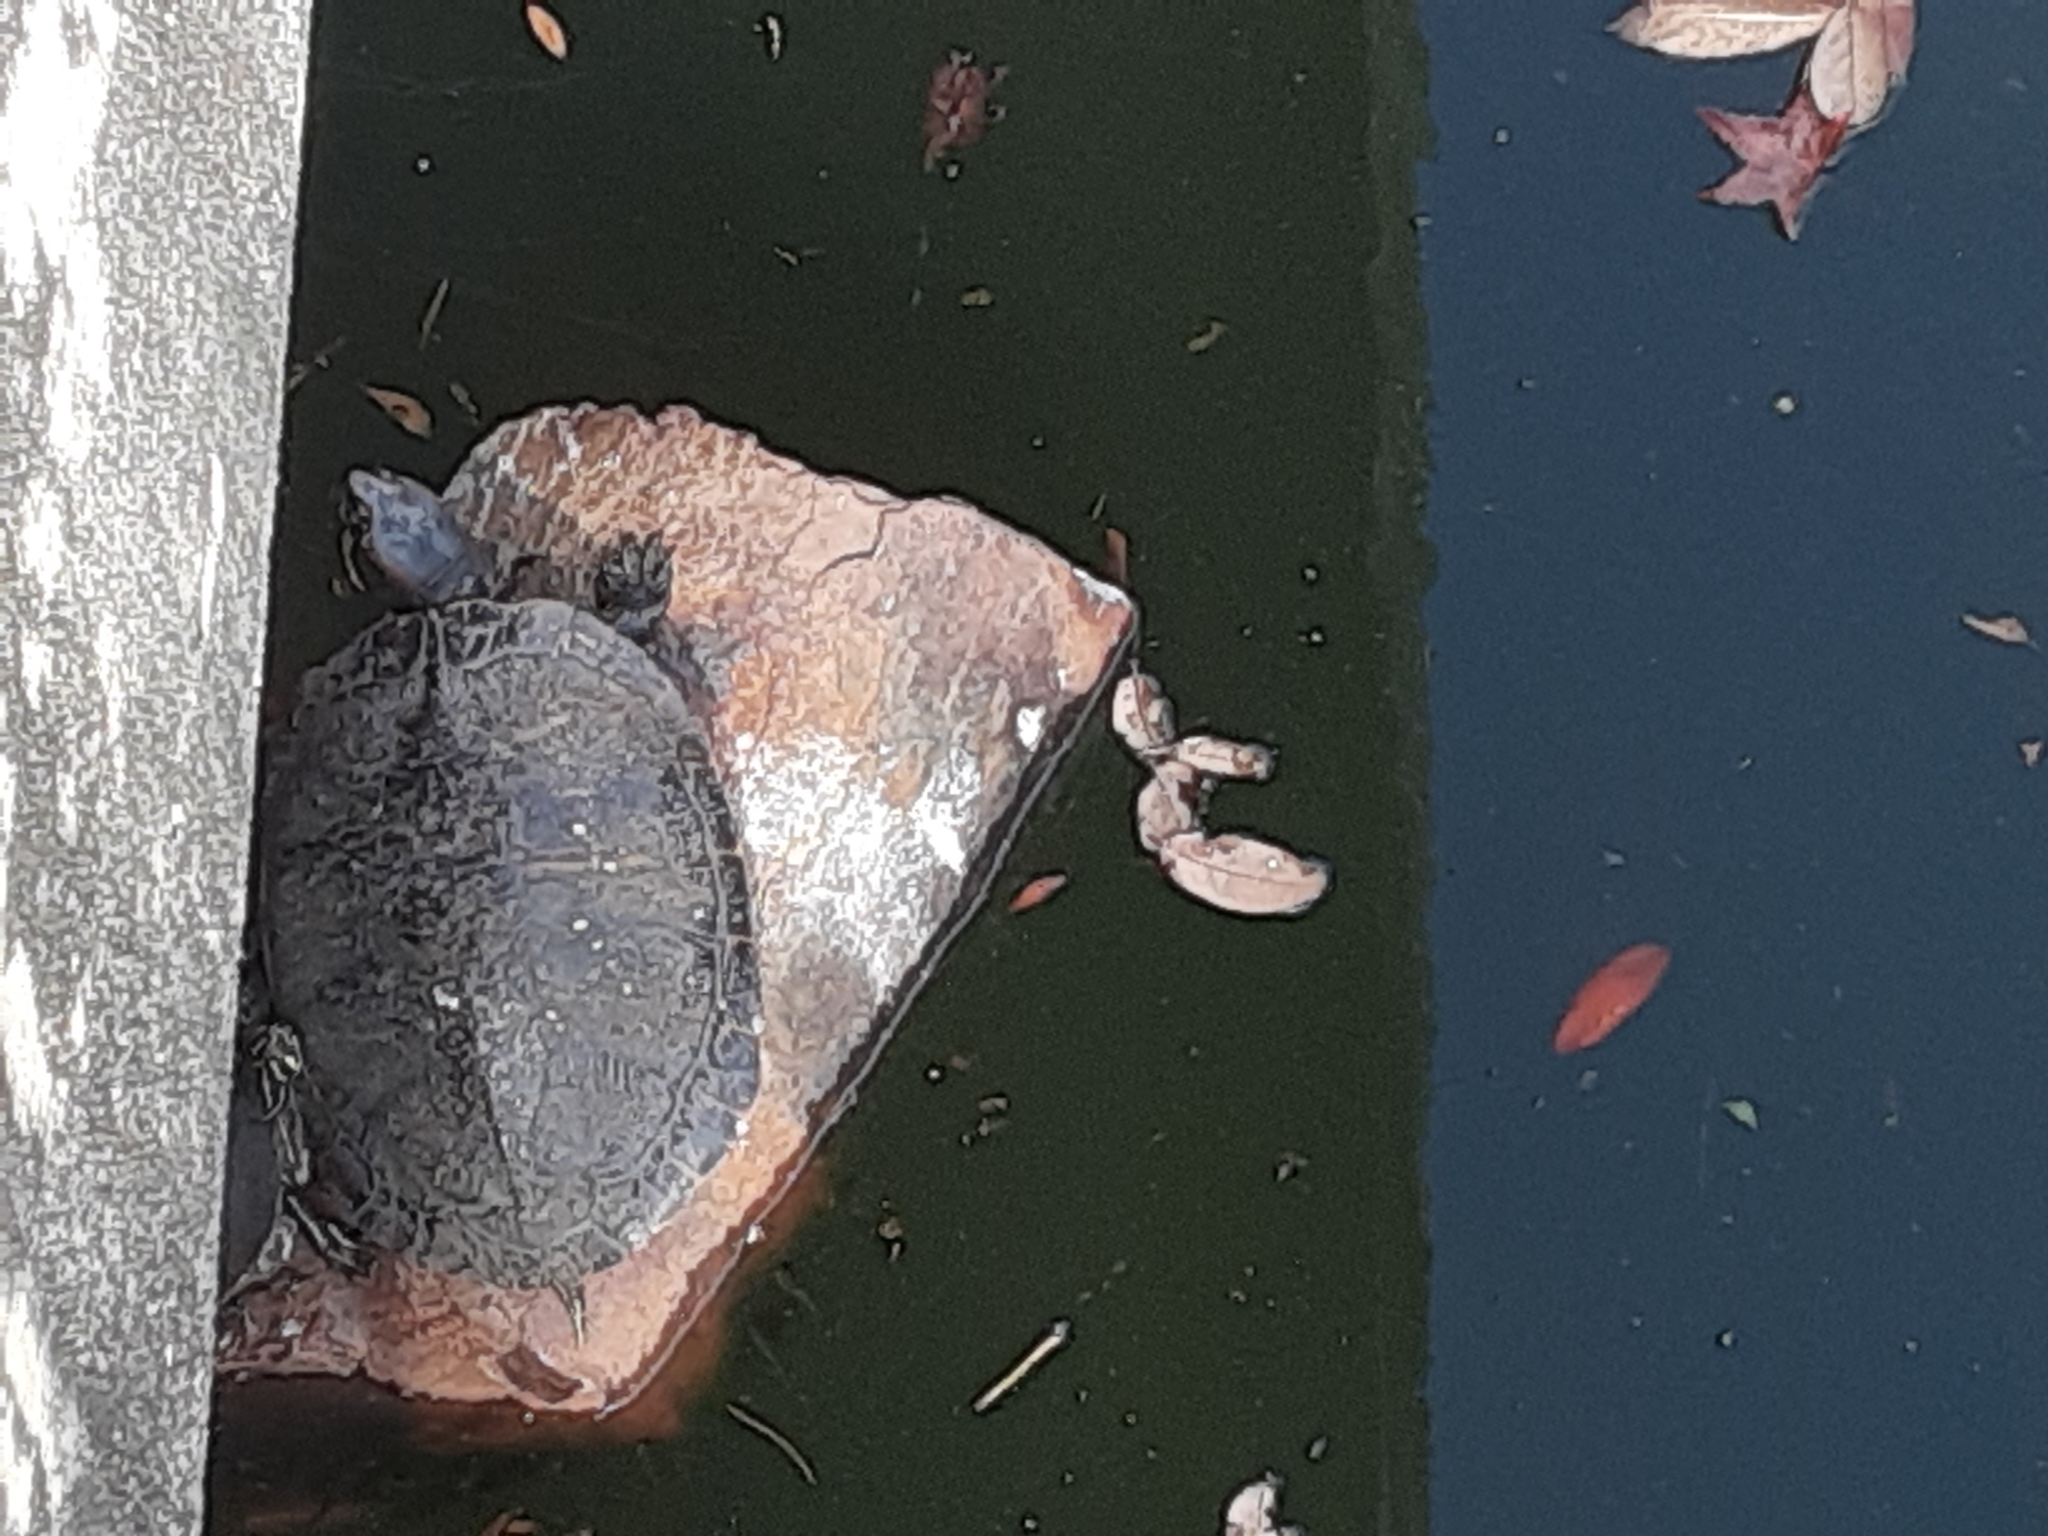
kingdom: Animalia
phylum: Chordata
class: Testudines
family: Emydidae
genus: Trachemys
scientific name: Trachemys scripta
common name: Slider
